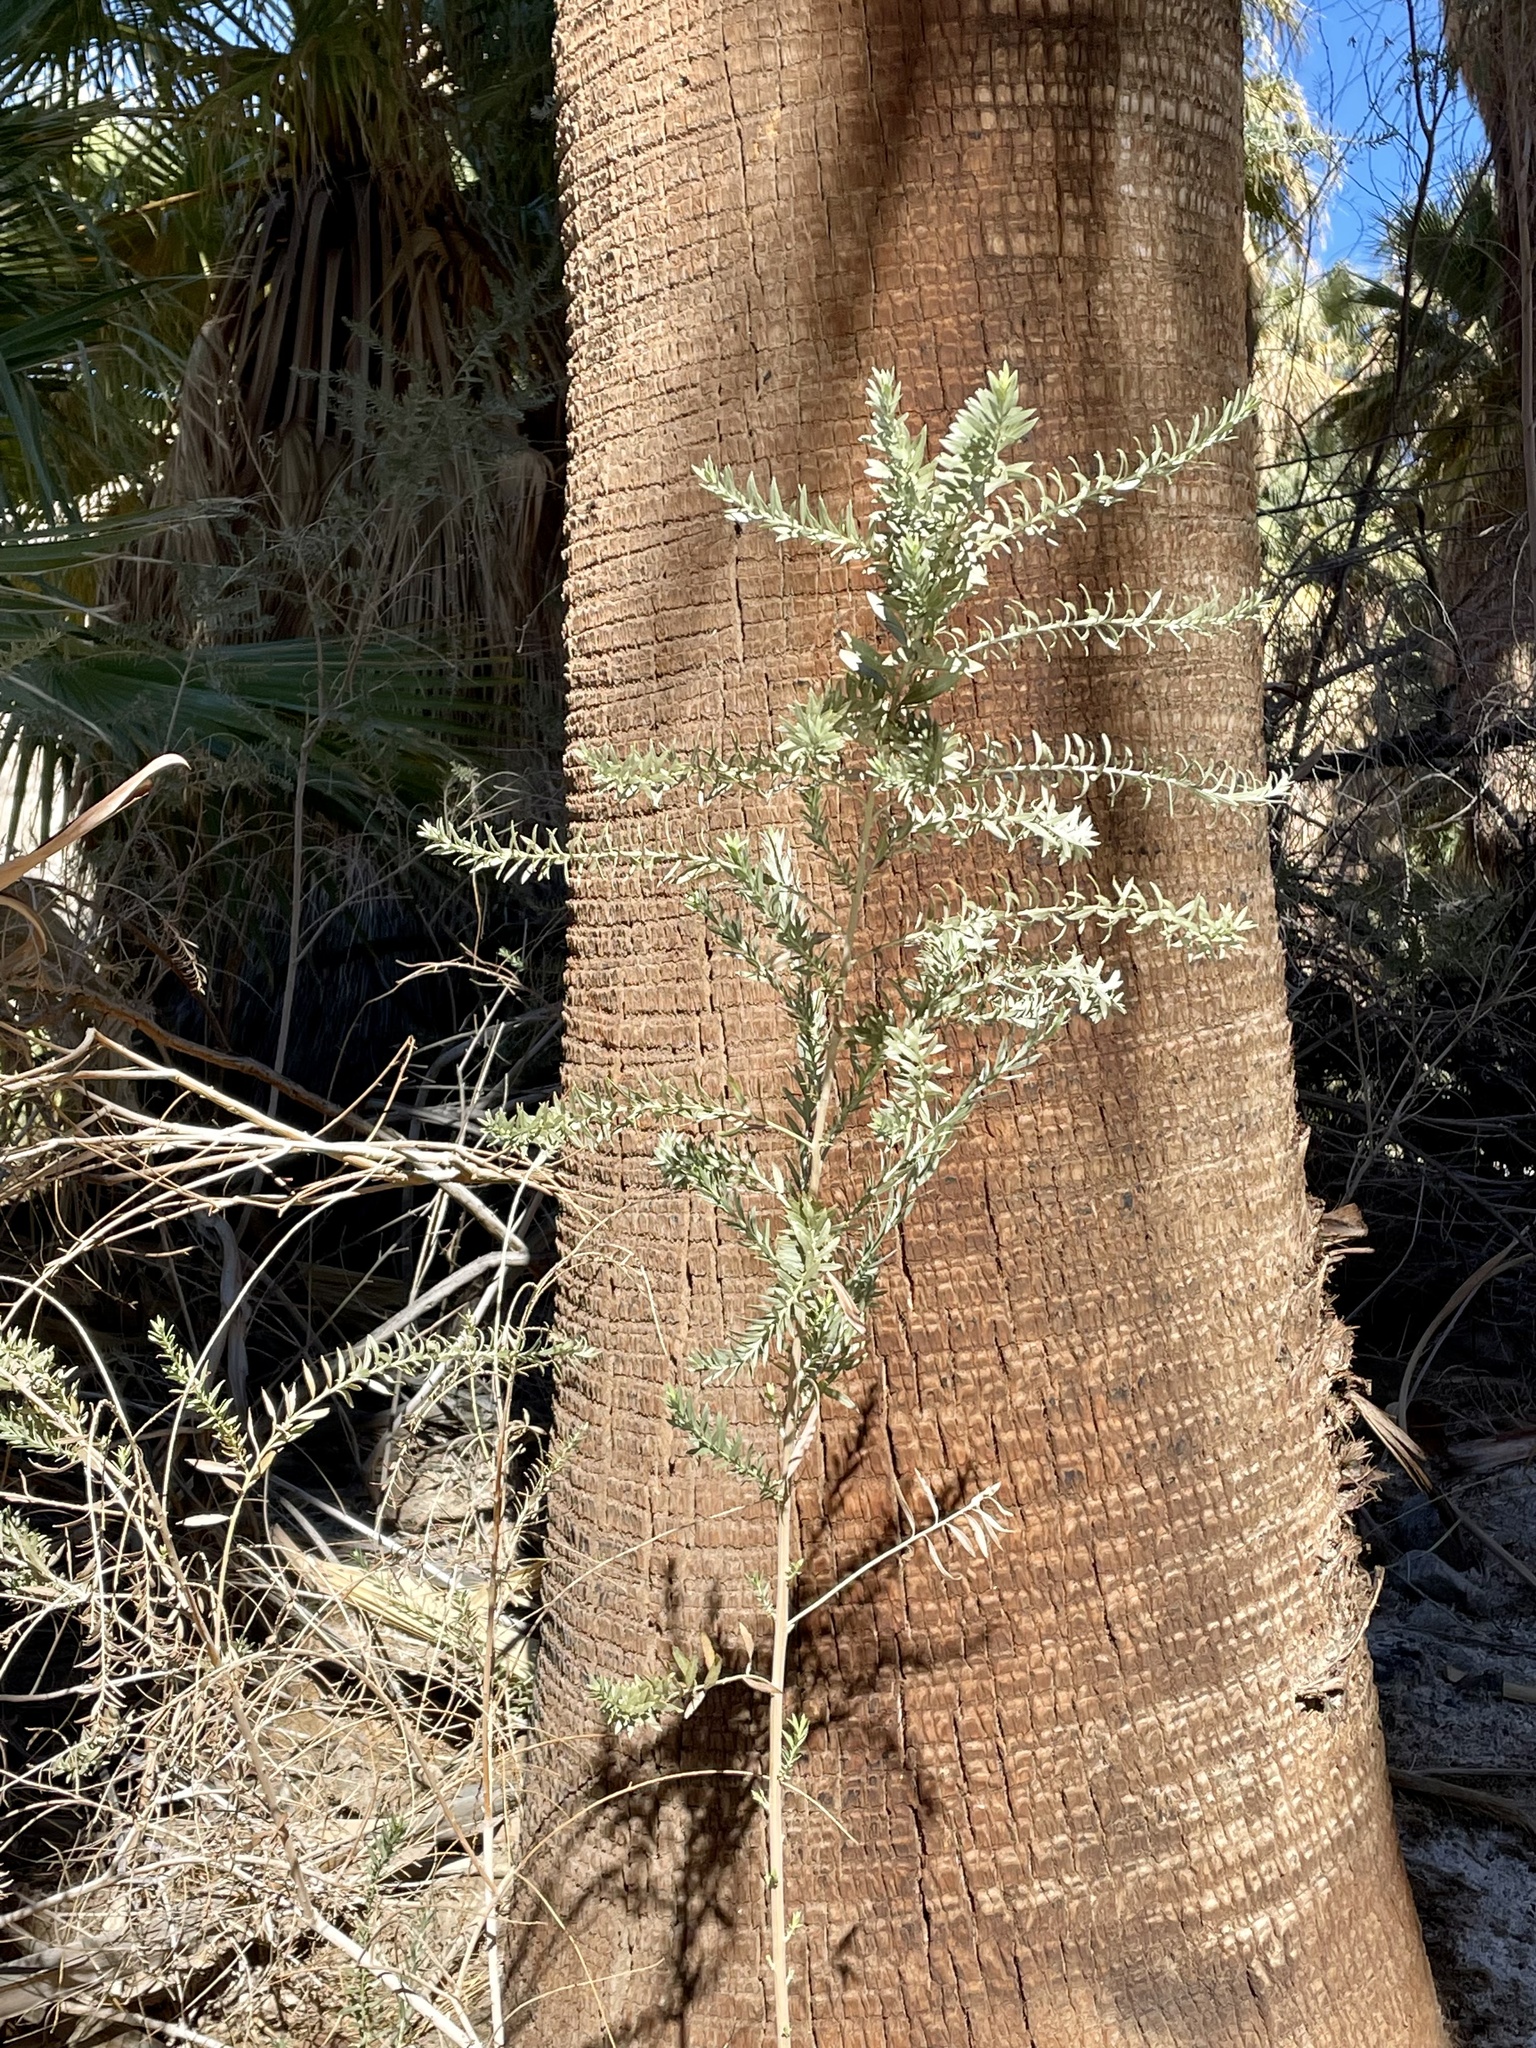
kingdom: Plantae
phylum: Tracheophyta
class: Magnoliopsida
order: Asterales
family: Asteraceae
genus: Pluchea
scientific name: Pluchea sericea
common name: Arrow-weed
